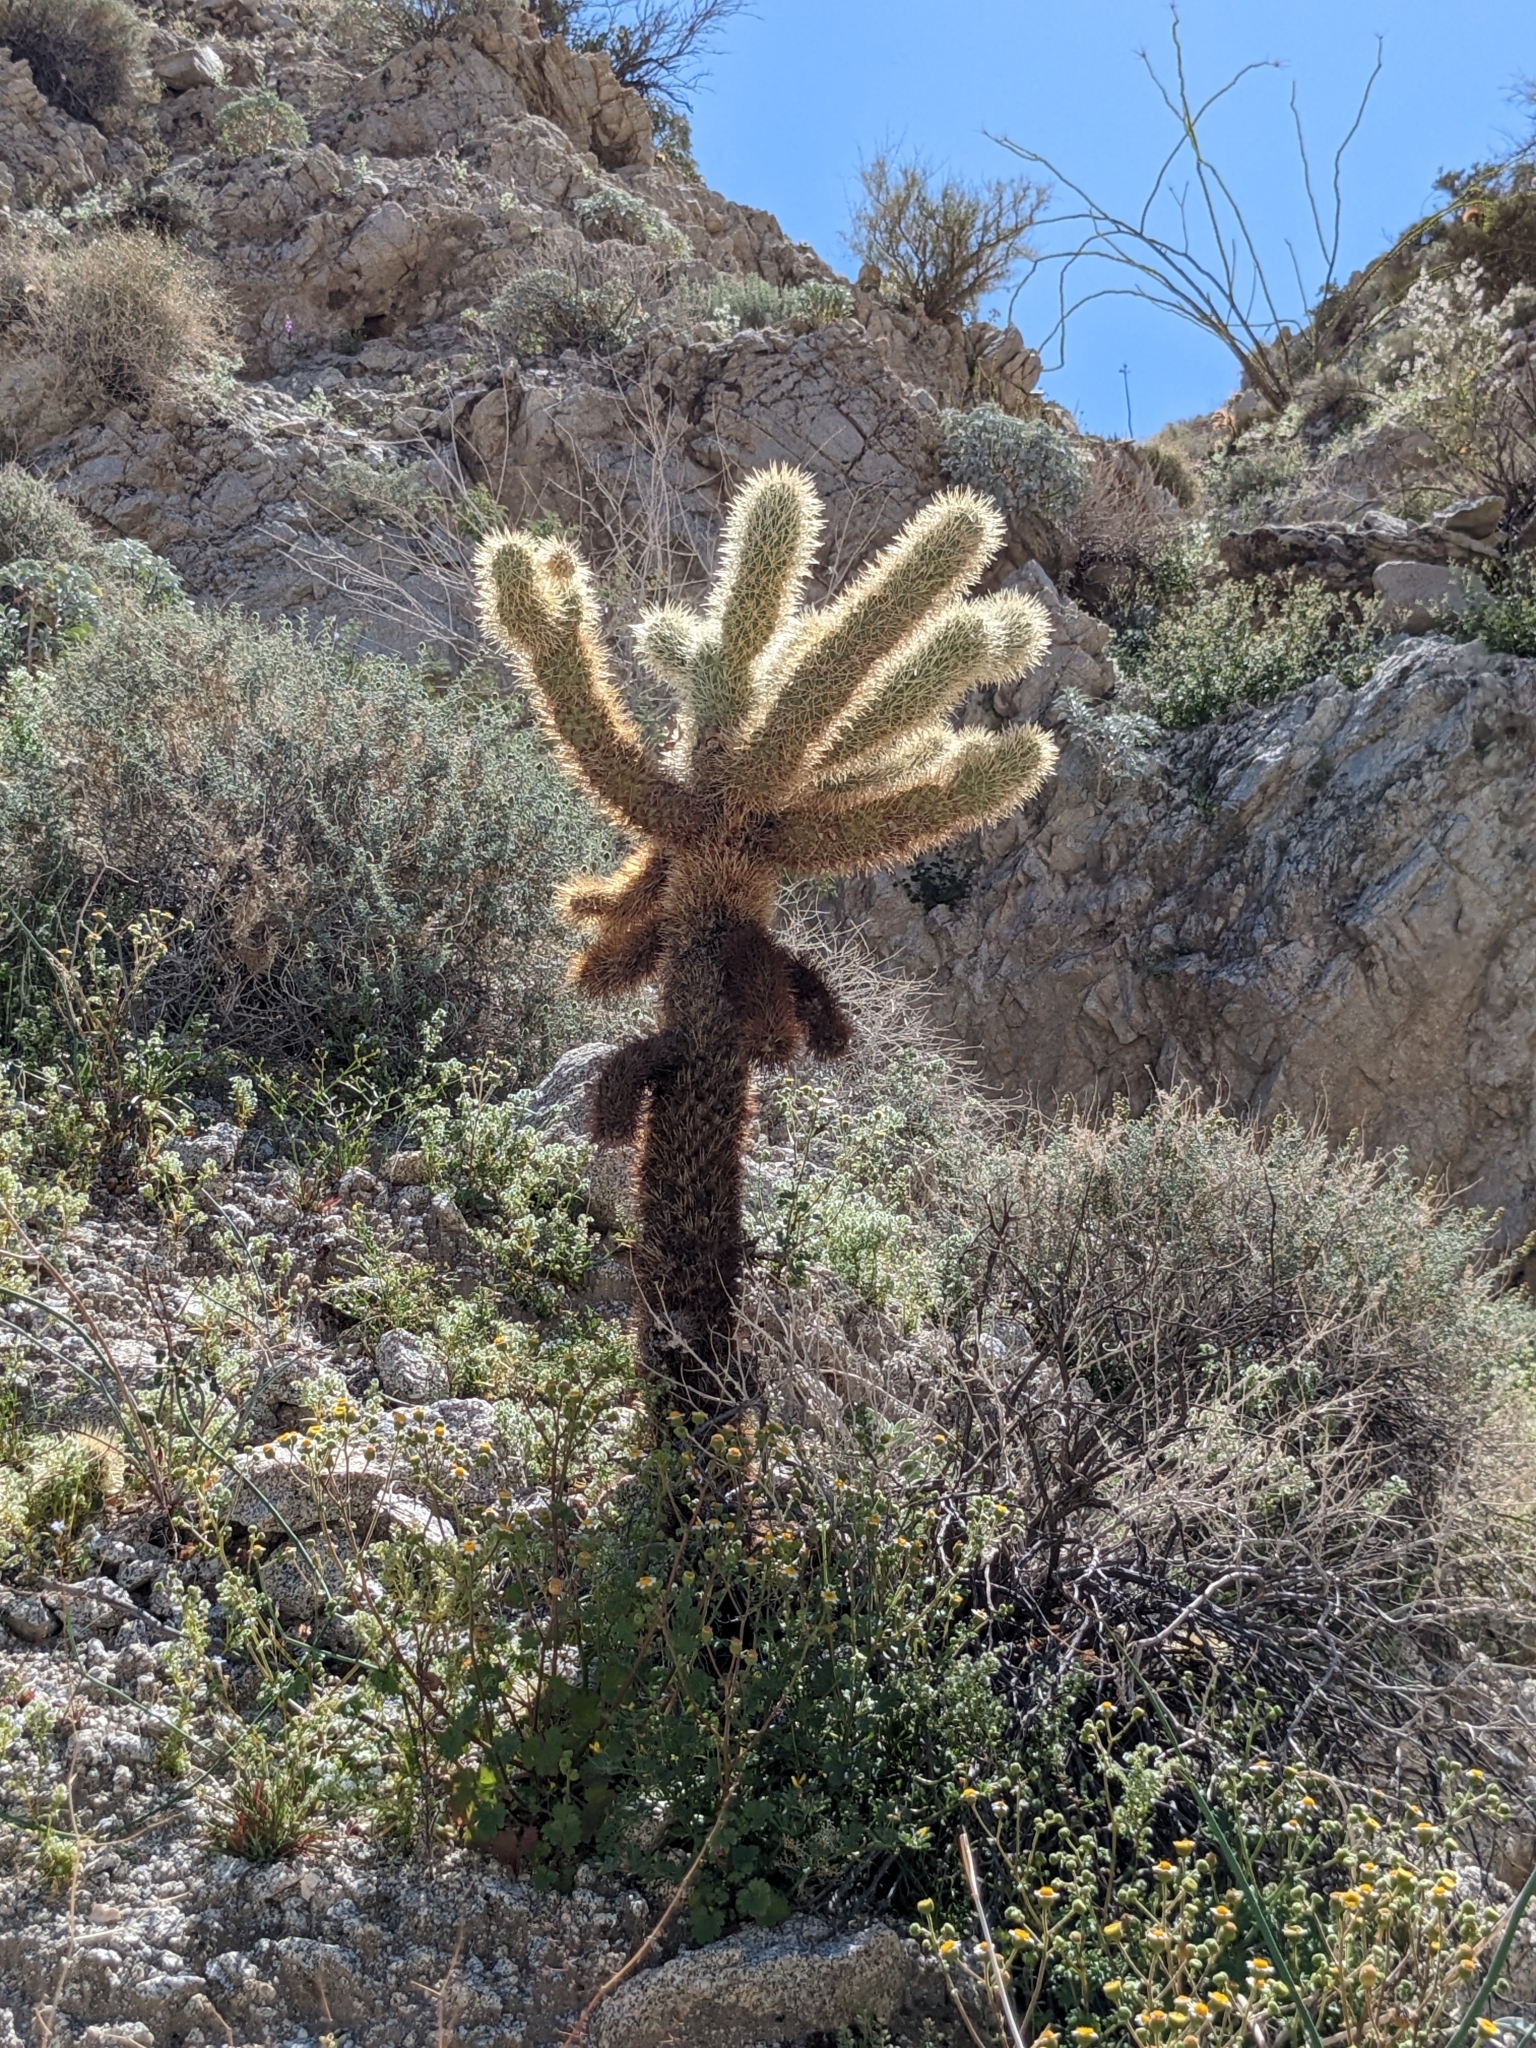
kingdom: Plantae
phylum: Tracheophyta
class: Magnoliopsida
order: Caryophyllales
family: Cactaceae
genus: Cylindropuntia
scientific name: Cylindropuntia fosbergii
